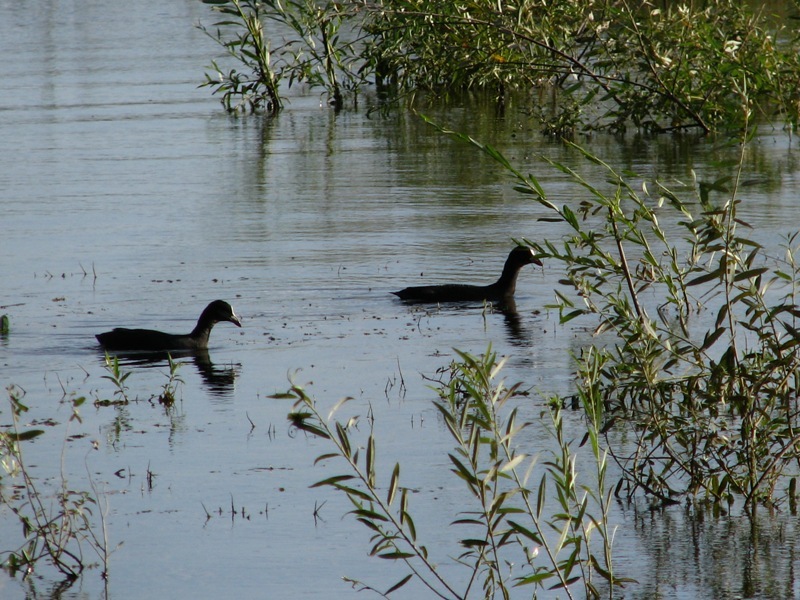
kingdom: Animalia
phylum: Chordata
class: Aves
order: Gruiformes
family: Rallidae
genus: Fulica
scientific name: Fulica atra
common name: Eurasian coot
